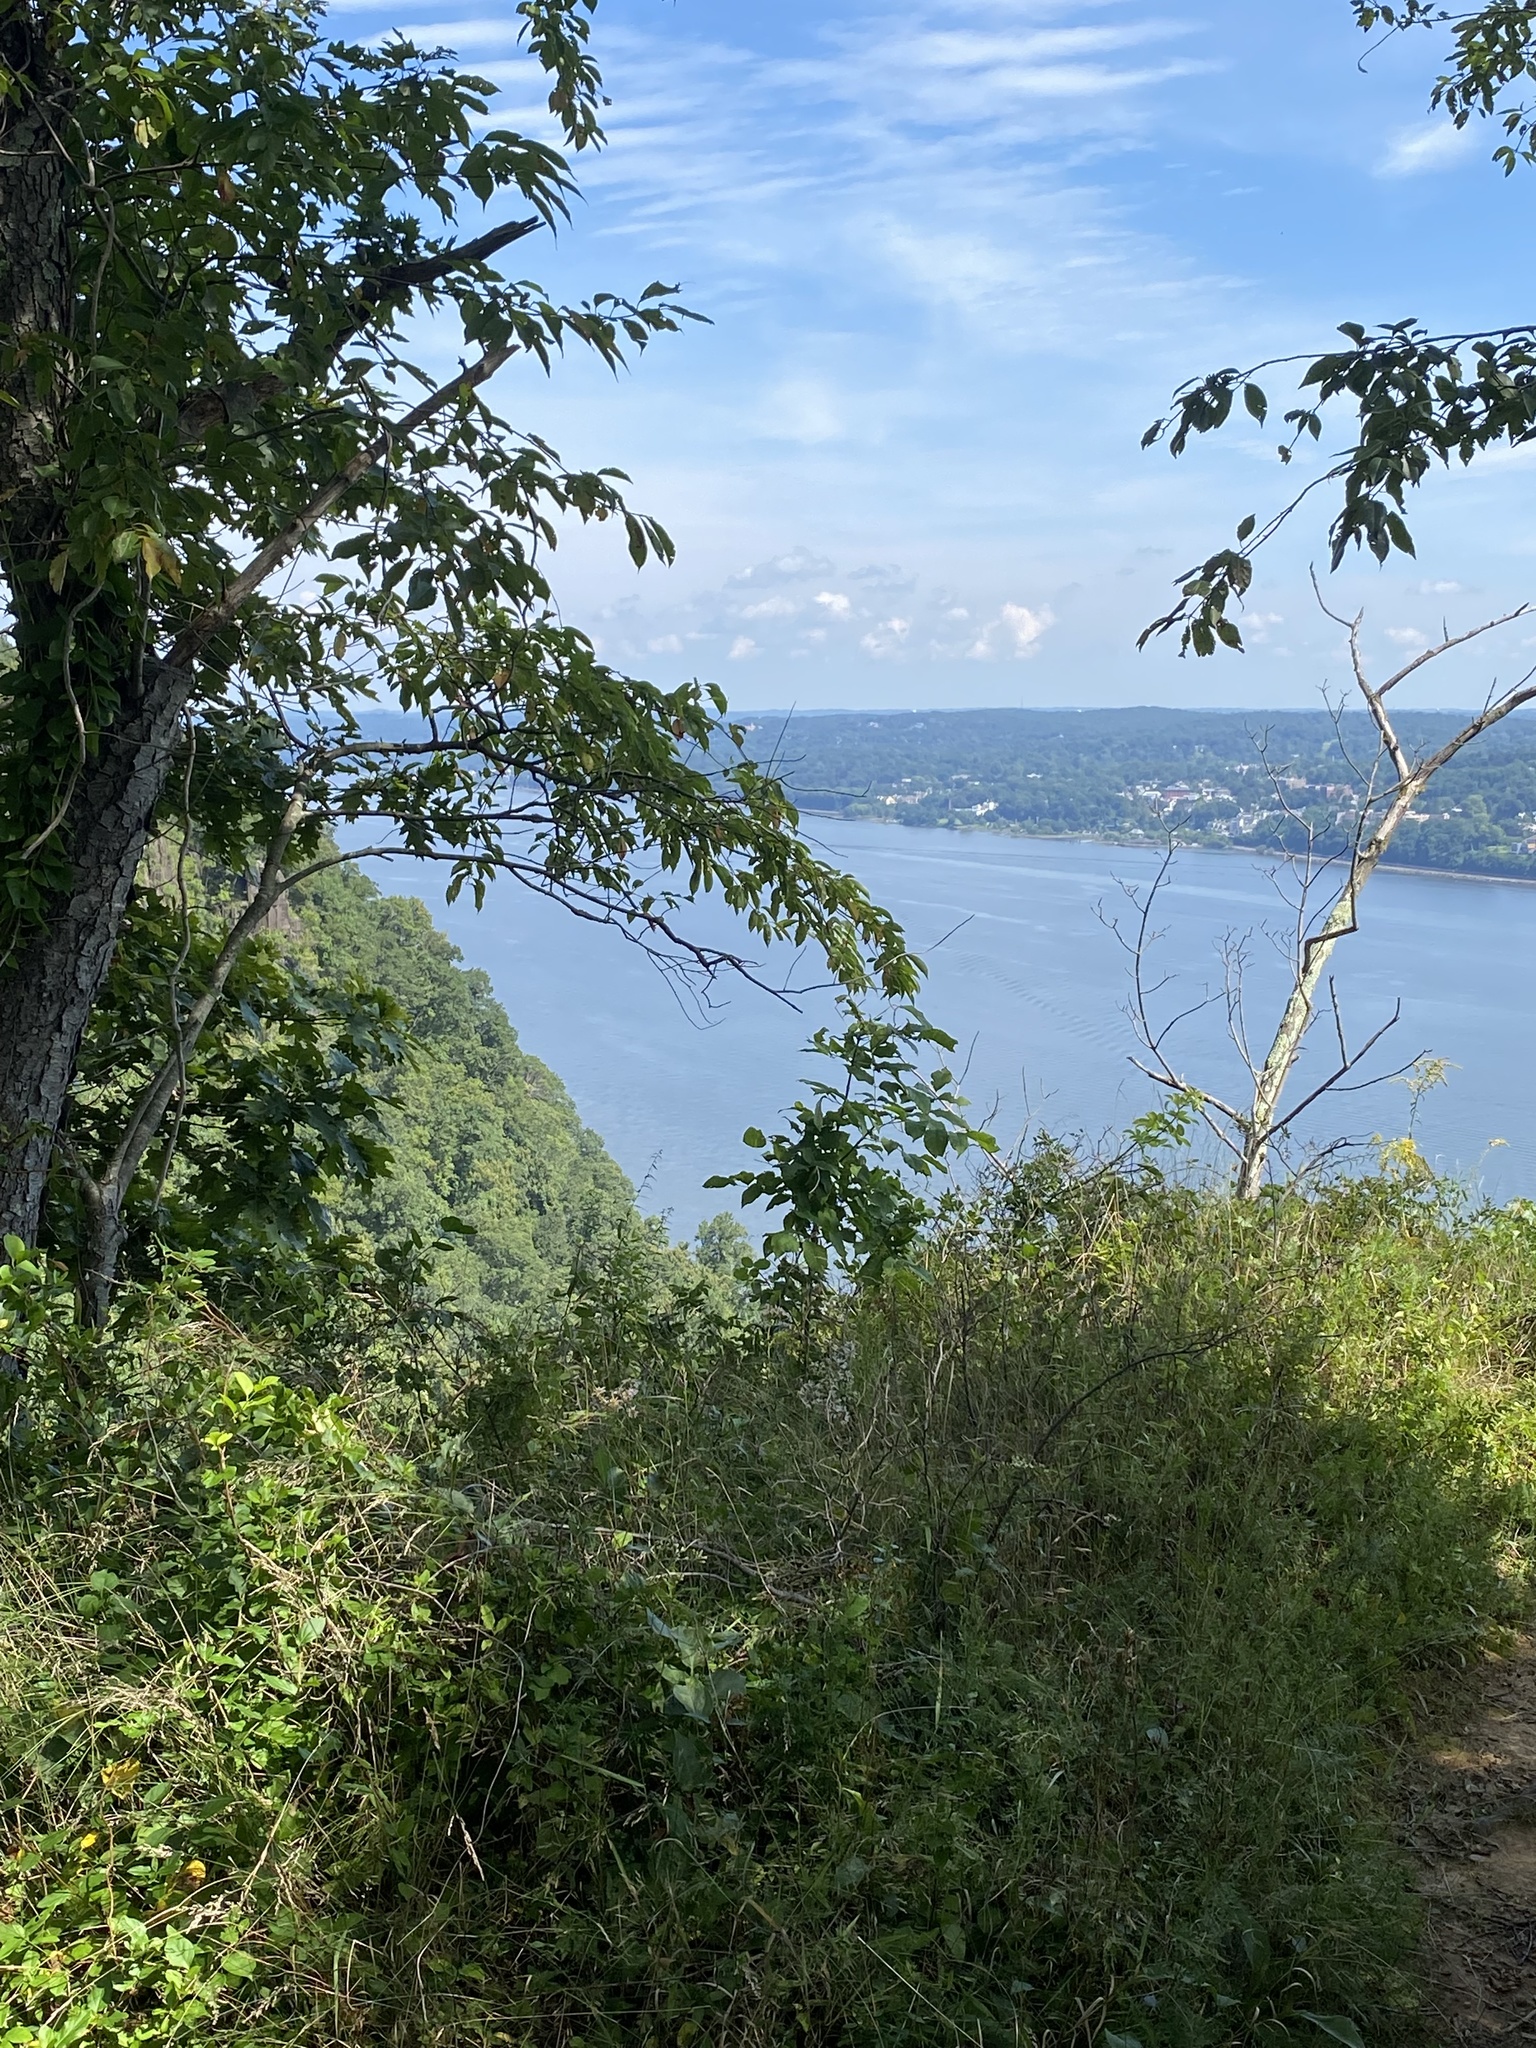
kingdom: Plantae
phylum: Tracheophyta
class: Magnoliopsida
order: Malpighiales
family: Euphorbiaceae
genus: Euphorbia
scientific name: Euphorbia maculata
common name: Spotted spurge
